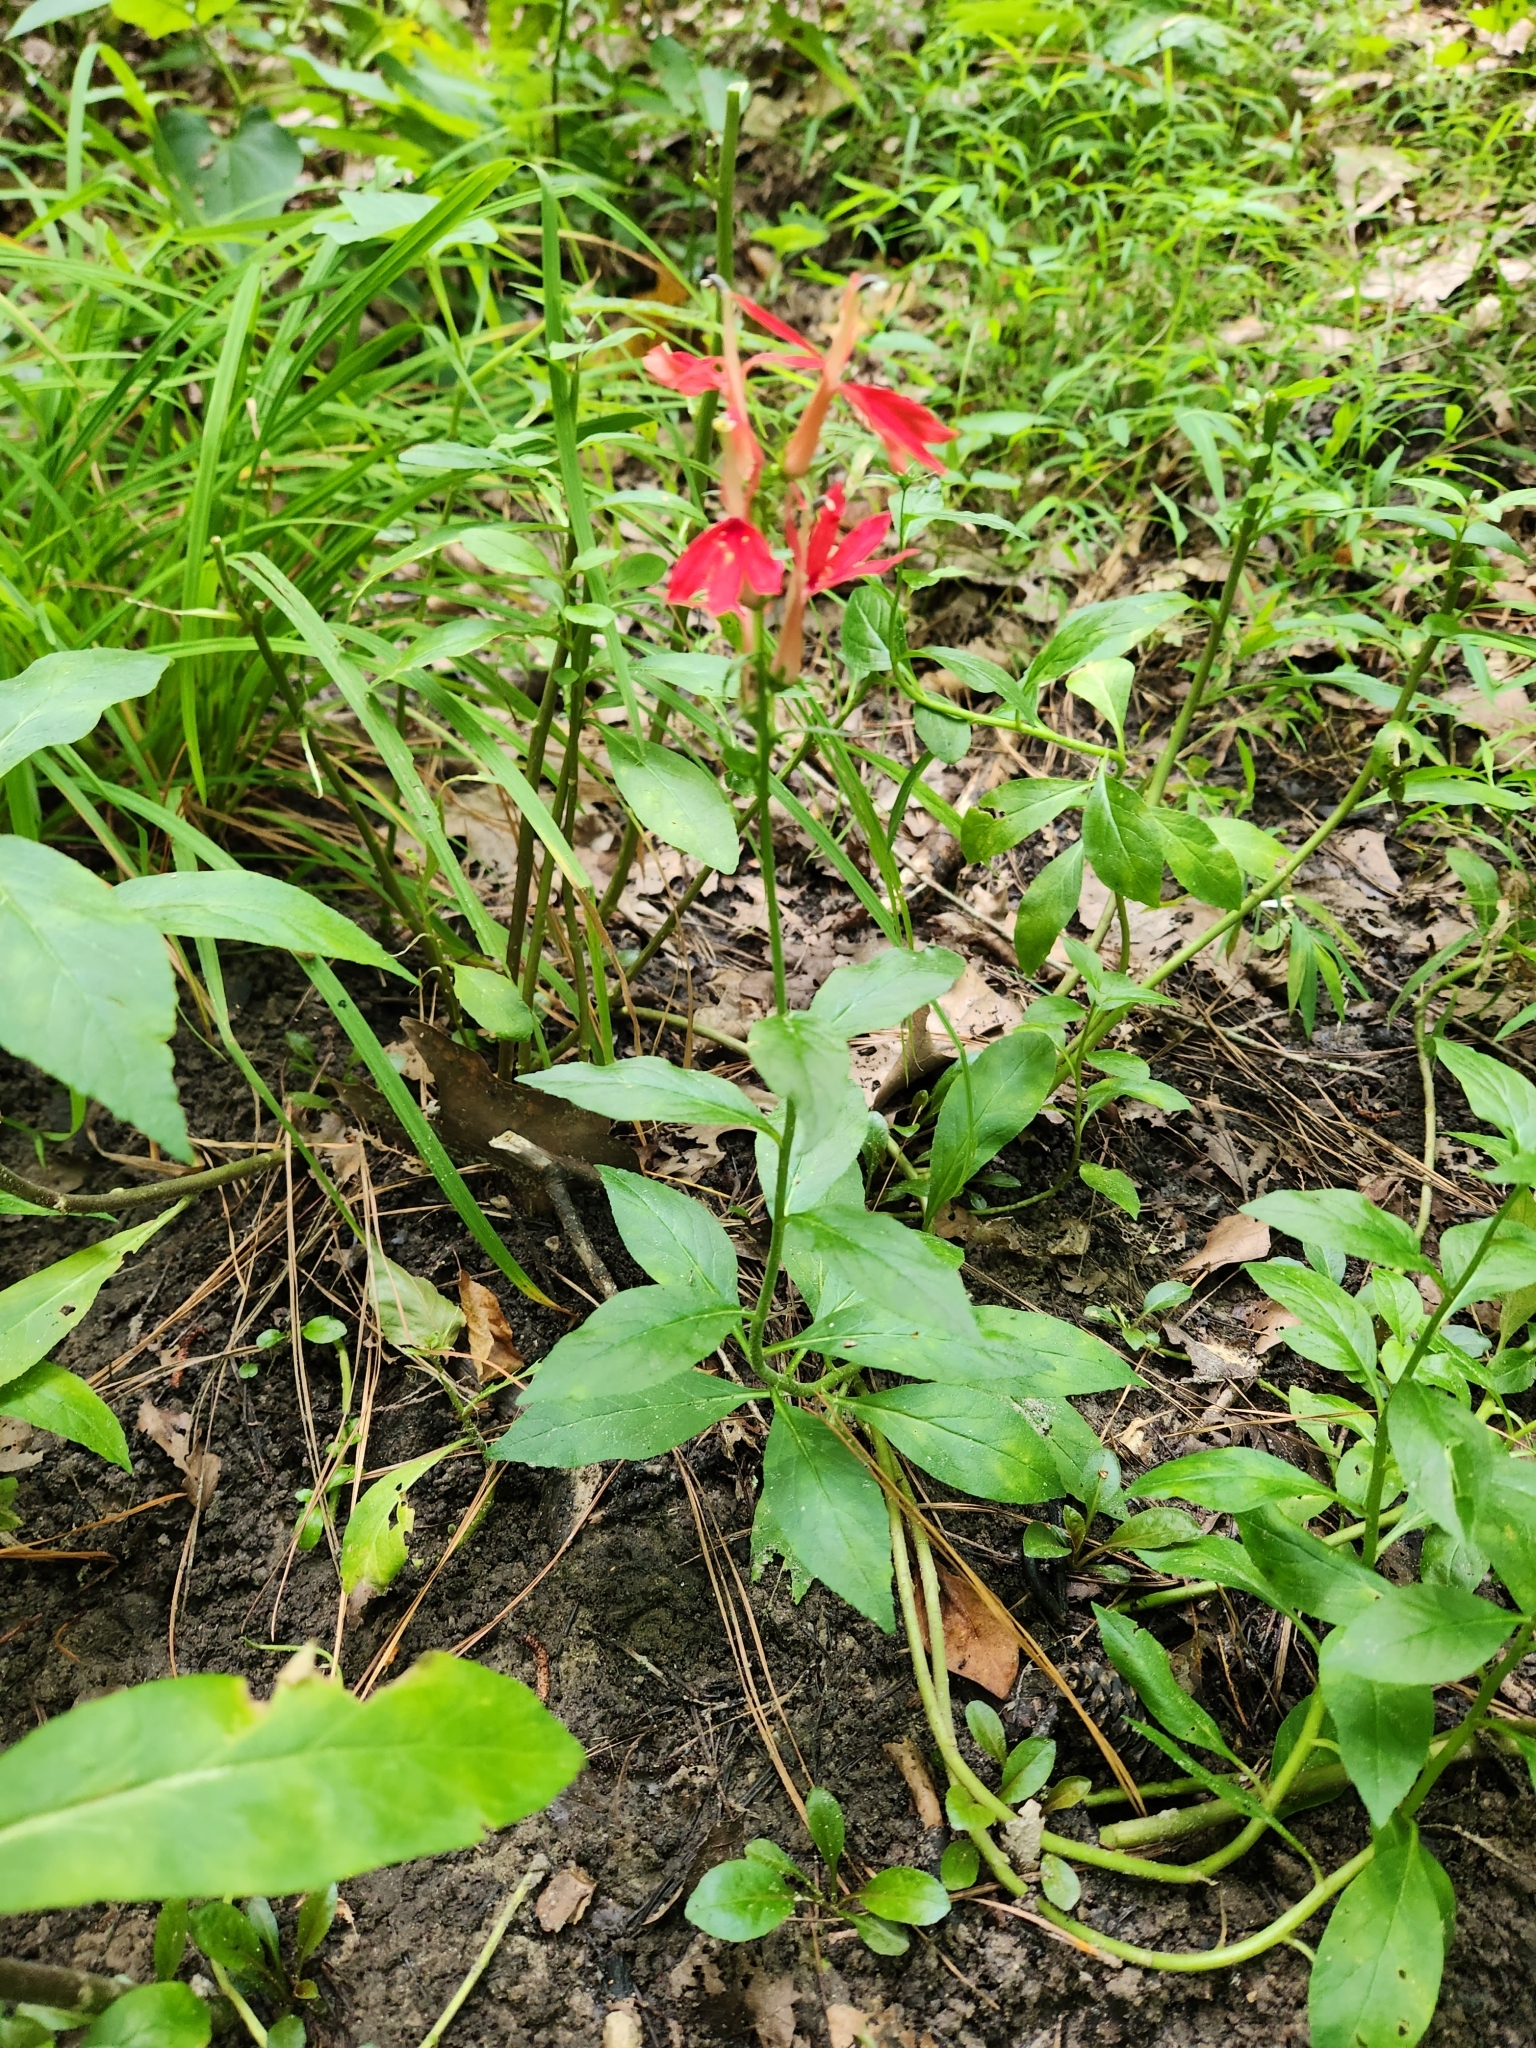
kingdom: Plantae
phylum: Tracheophyta
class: Magnoliopsida
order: Asterales
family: Campanulaceae
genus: Lobelia
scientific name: Lobelia cardinalis
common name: Cardinal flower
